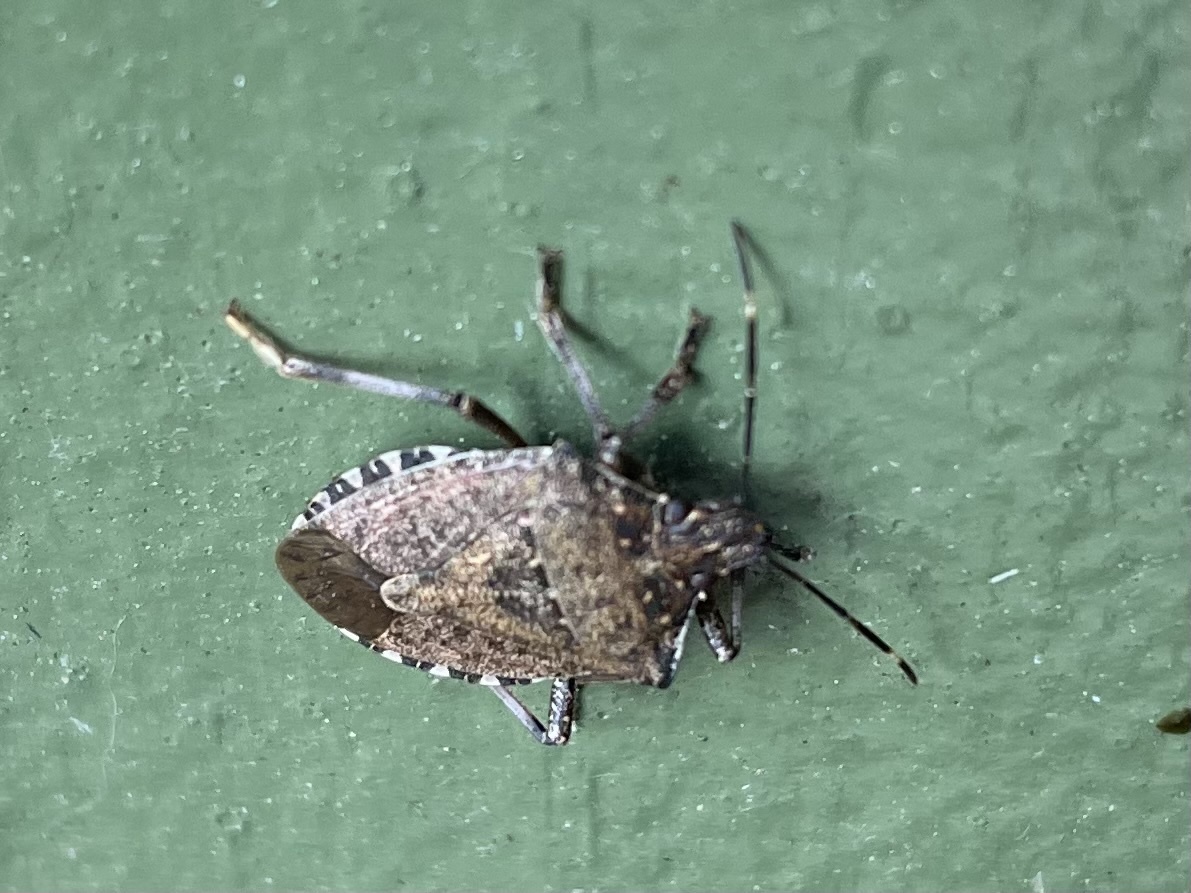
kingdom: Animalia
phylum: Arthropoda
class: Insecta
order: Hemiptera
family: Pentatomidae
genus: Halyomorpha
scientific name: Halyomorpha halys
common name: Brown marmorated stink bug
